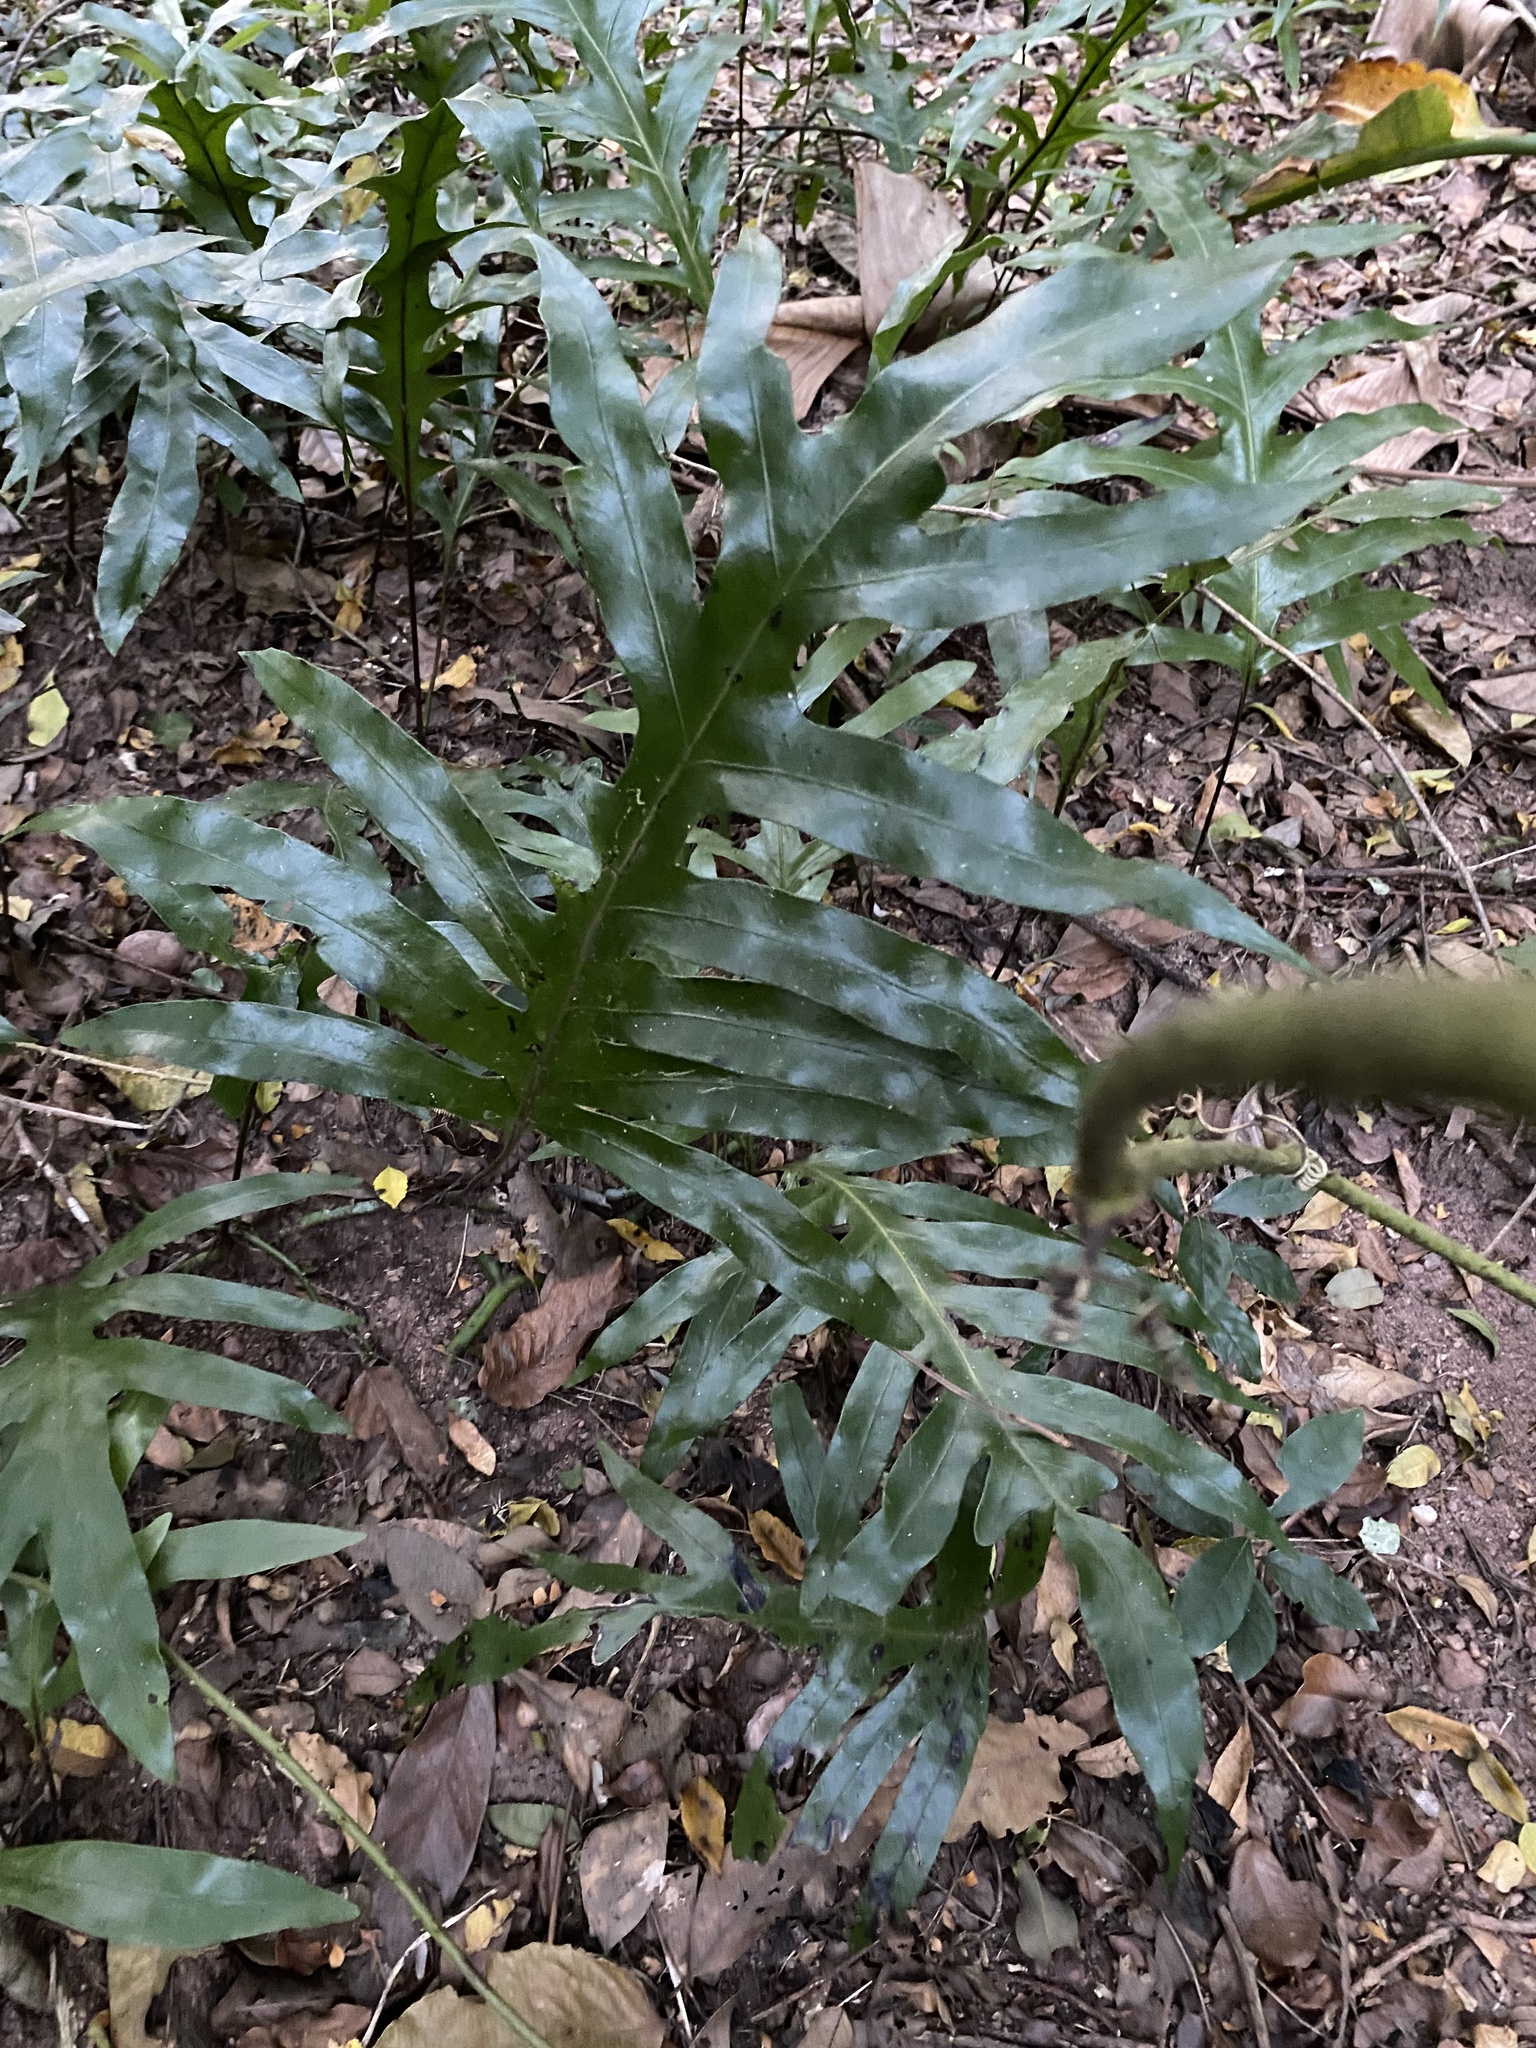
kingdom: Plantae
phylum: Tracheophyta
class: Polypodiopsida
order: Polypodiales
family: Polypodiaceae
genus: Microsorum
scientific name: Microsorum scolopendria
